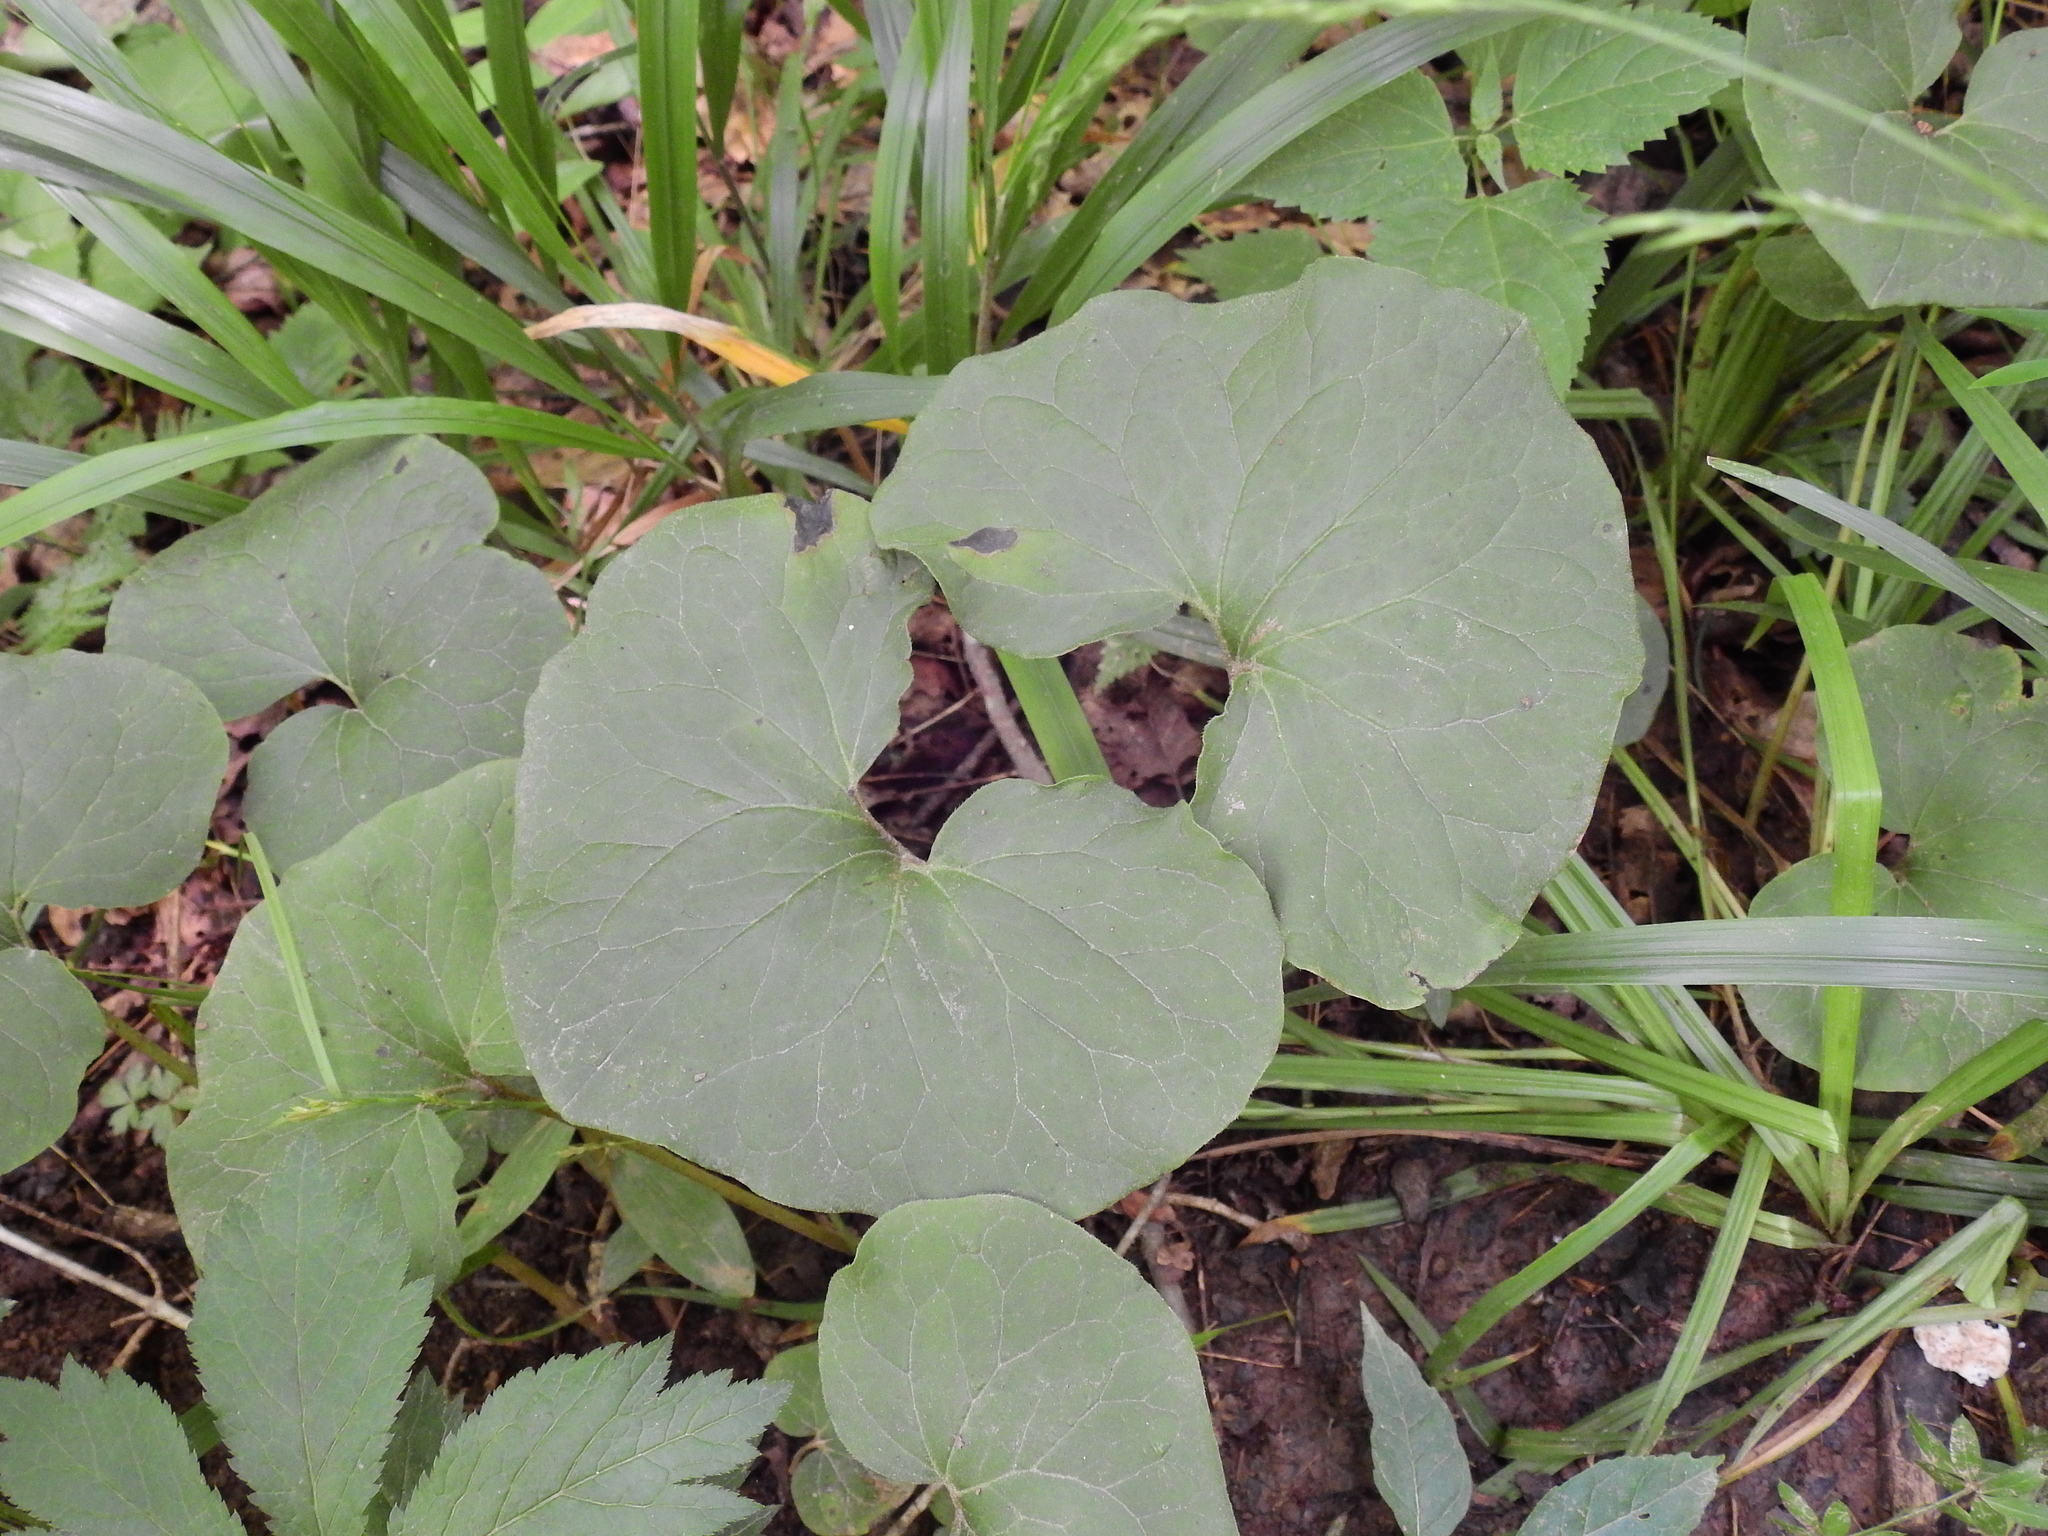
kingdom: Plantae
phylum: Tracheophyta
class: Magnoliopsida
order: Piperales
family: Aristolochiaceae
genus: Asarum
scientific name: Asarum canadense
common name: Wild ginger
